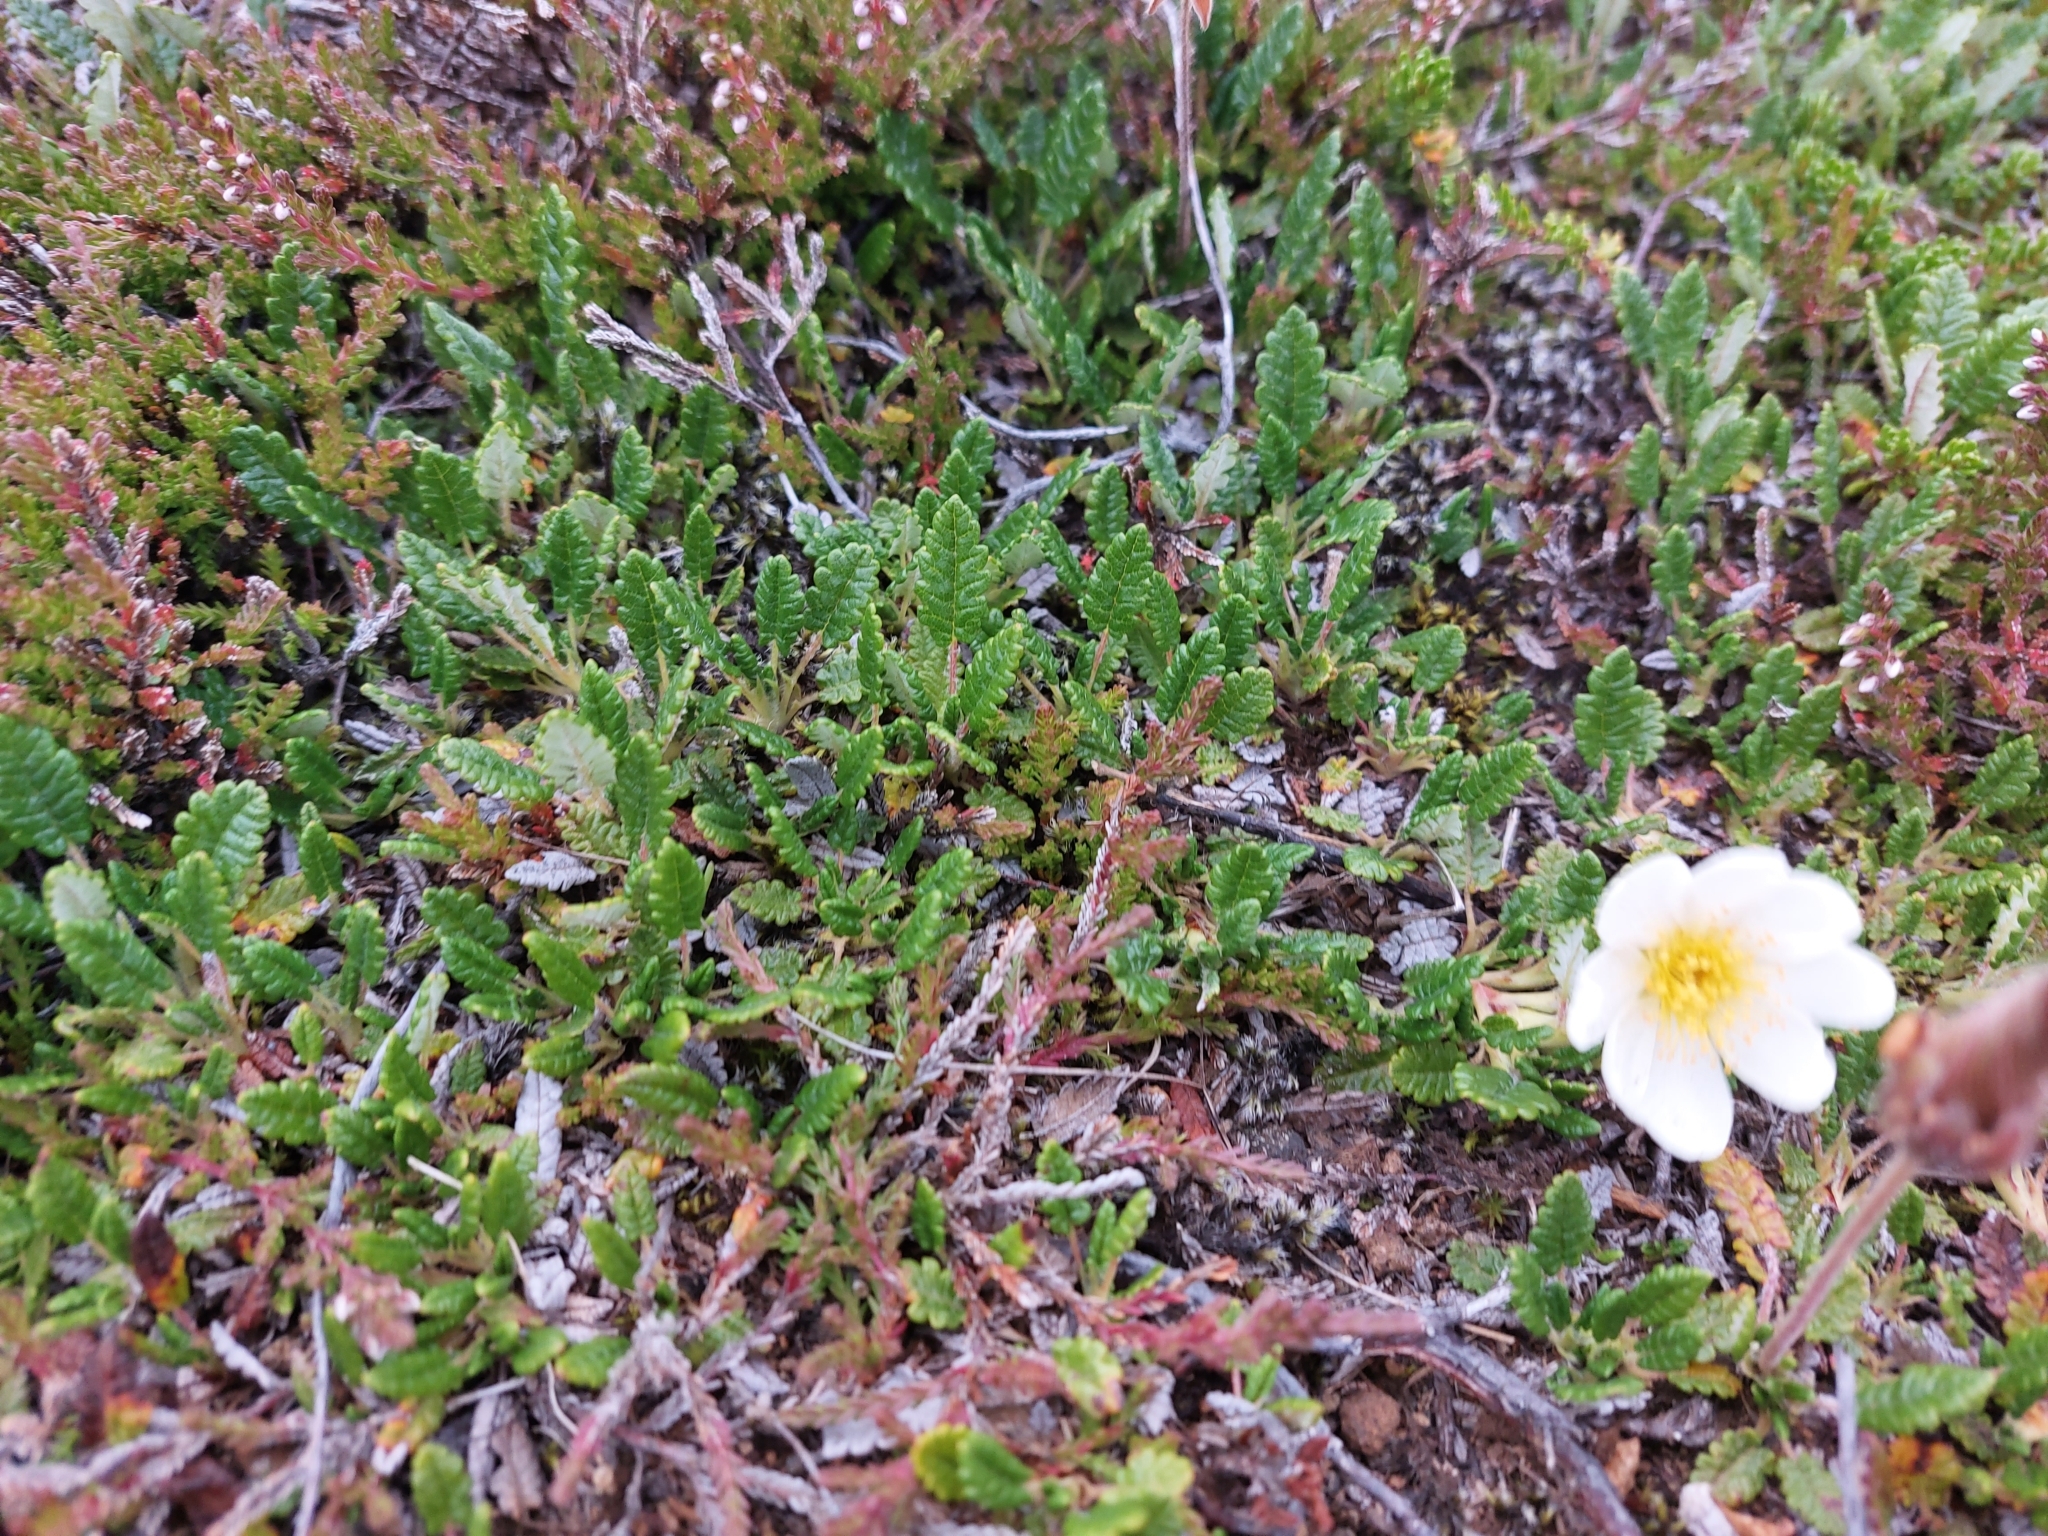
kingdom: Plantae
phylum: Tracheophyta
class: Magnoliopsida
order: Rosales
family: Rosaceae
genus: Dryas
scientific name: Dryas octopetala
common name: Eight-petal mountain-avens
